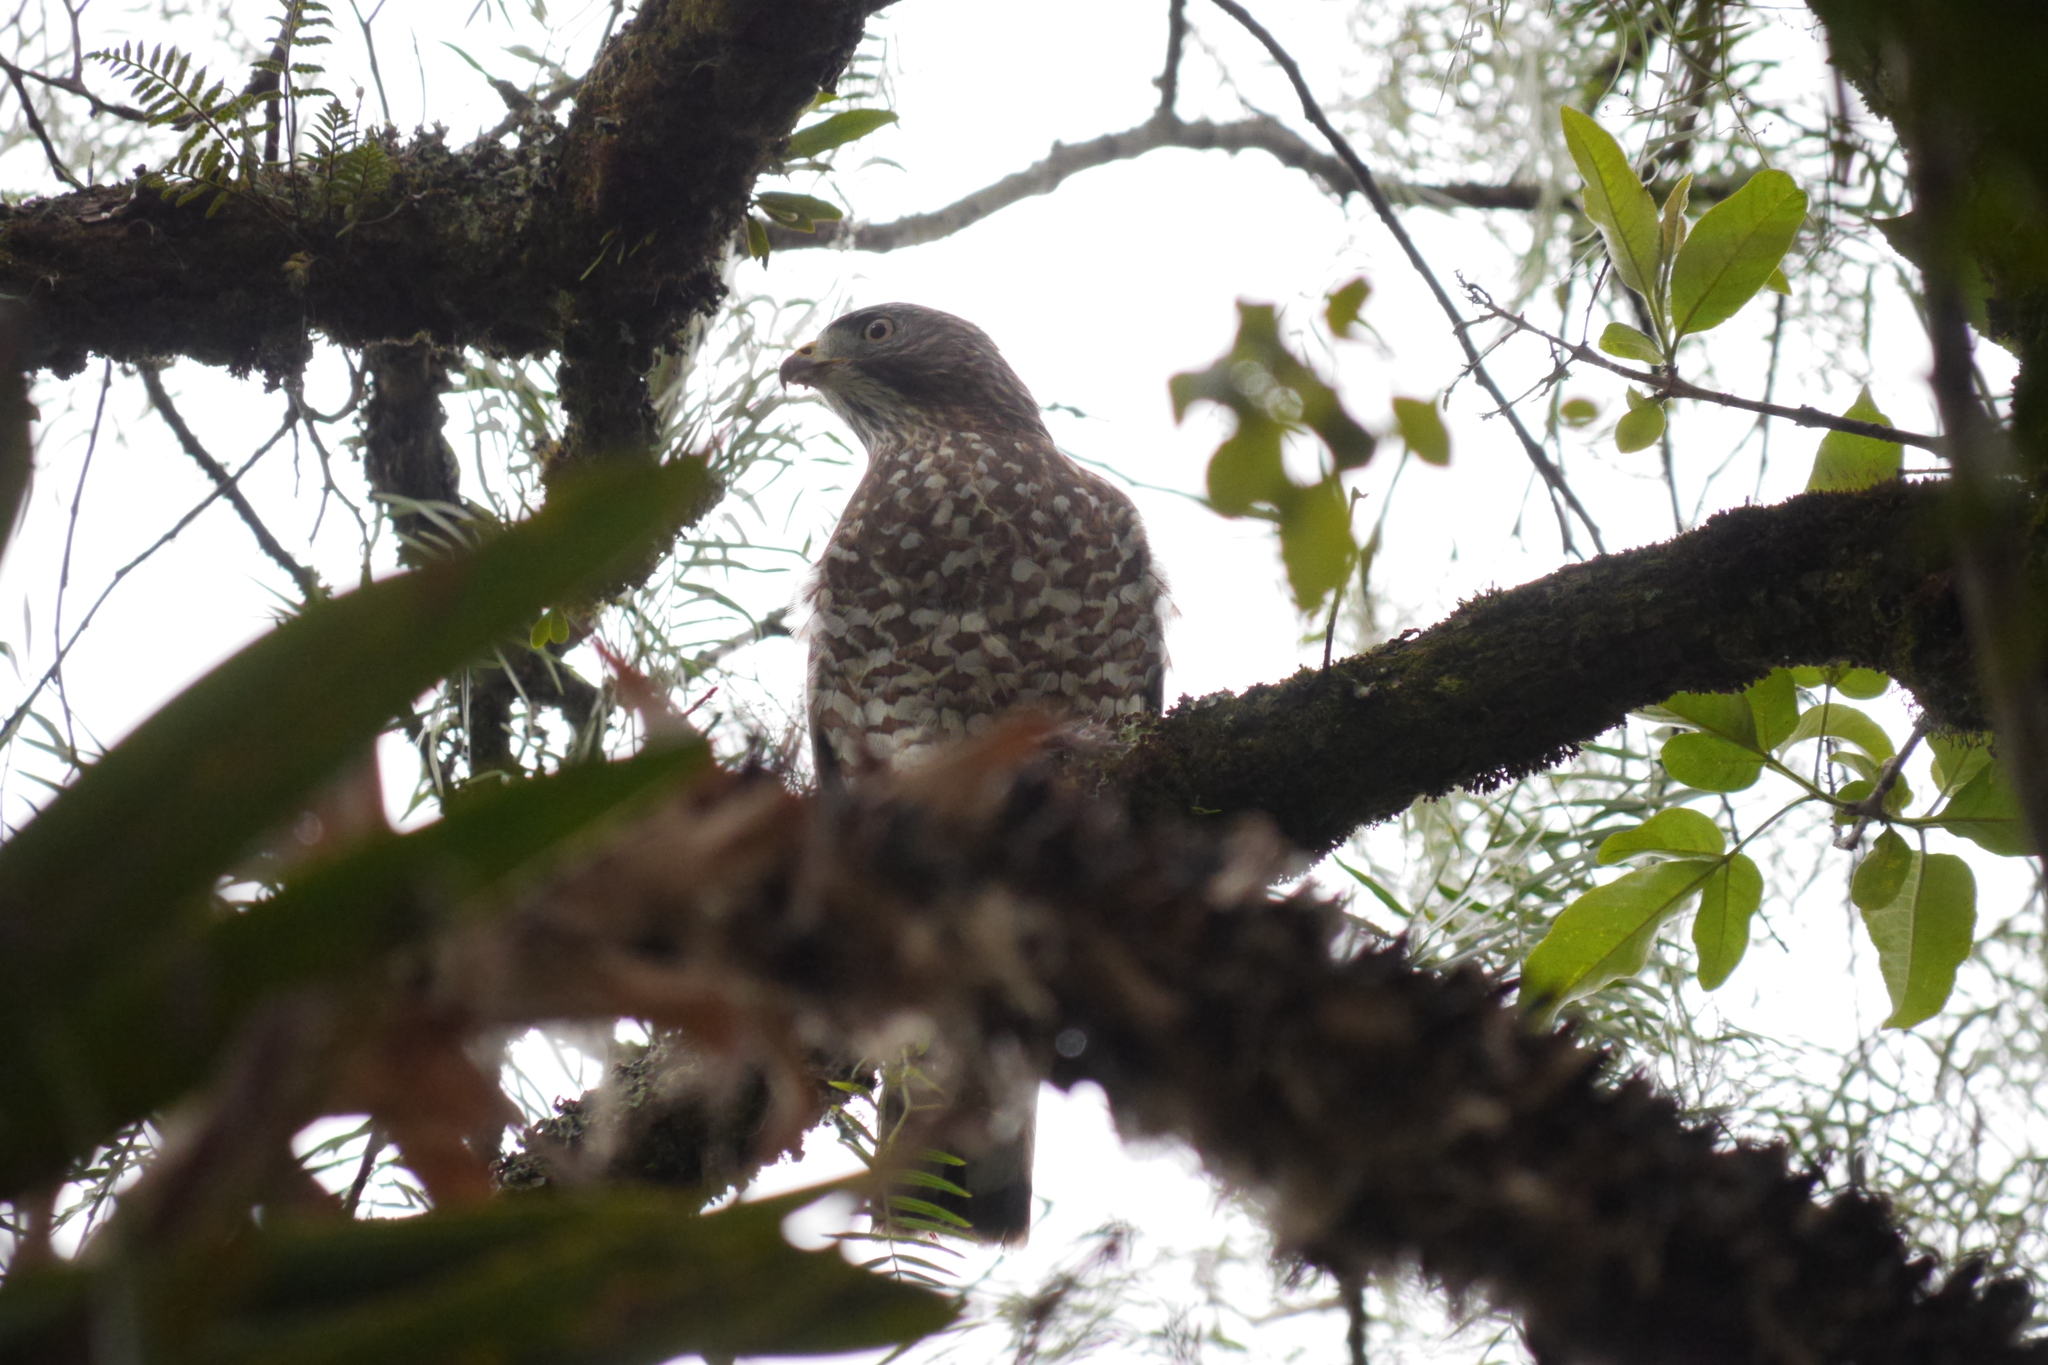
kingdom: Animalia
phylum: Chordata
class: Aves
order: Accipitriformes
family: Accipitridae
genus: Buteo
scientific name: Buteo platypterus
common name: Broad-winged hawk
